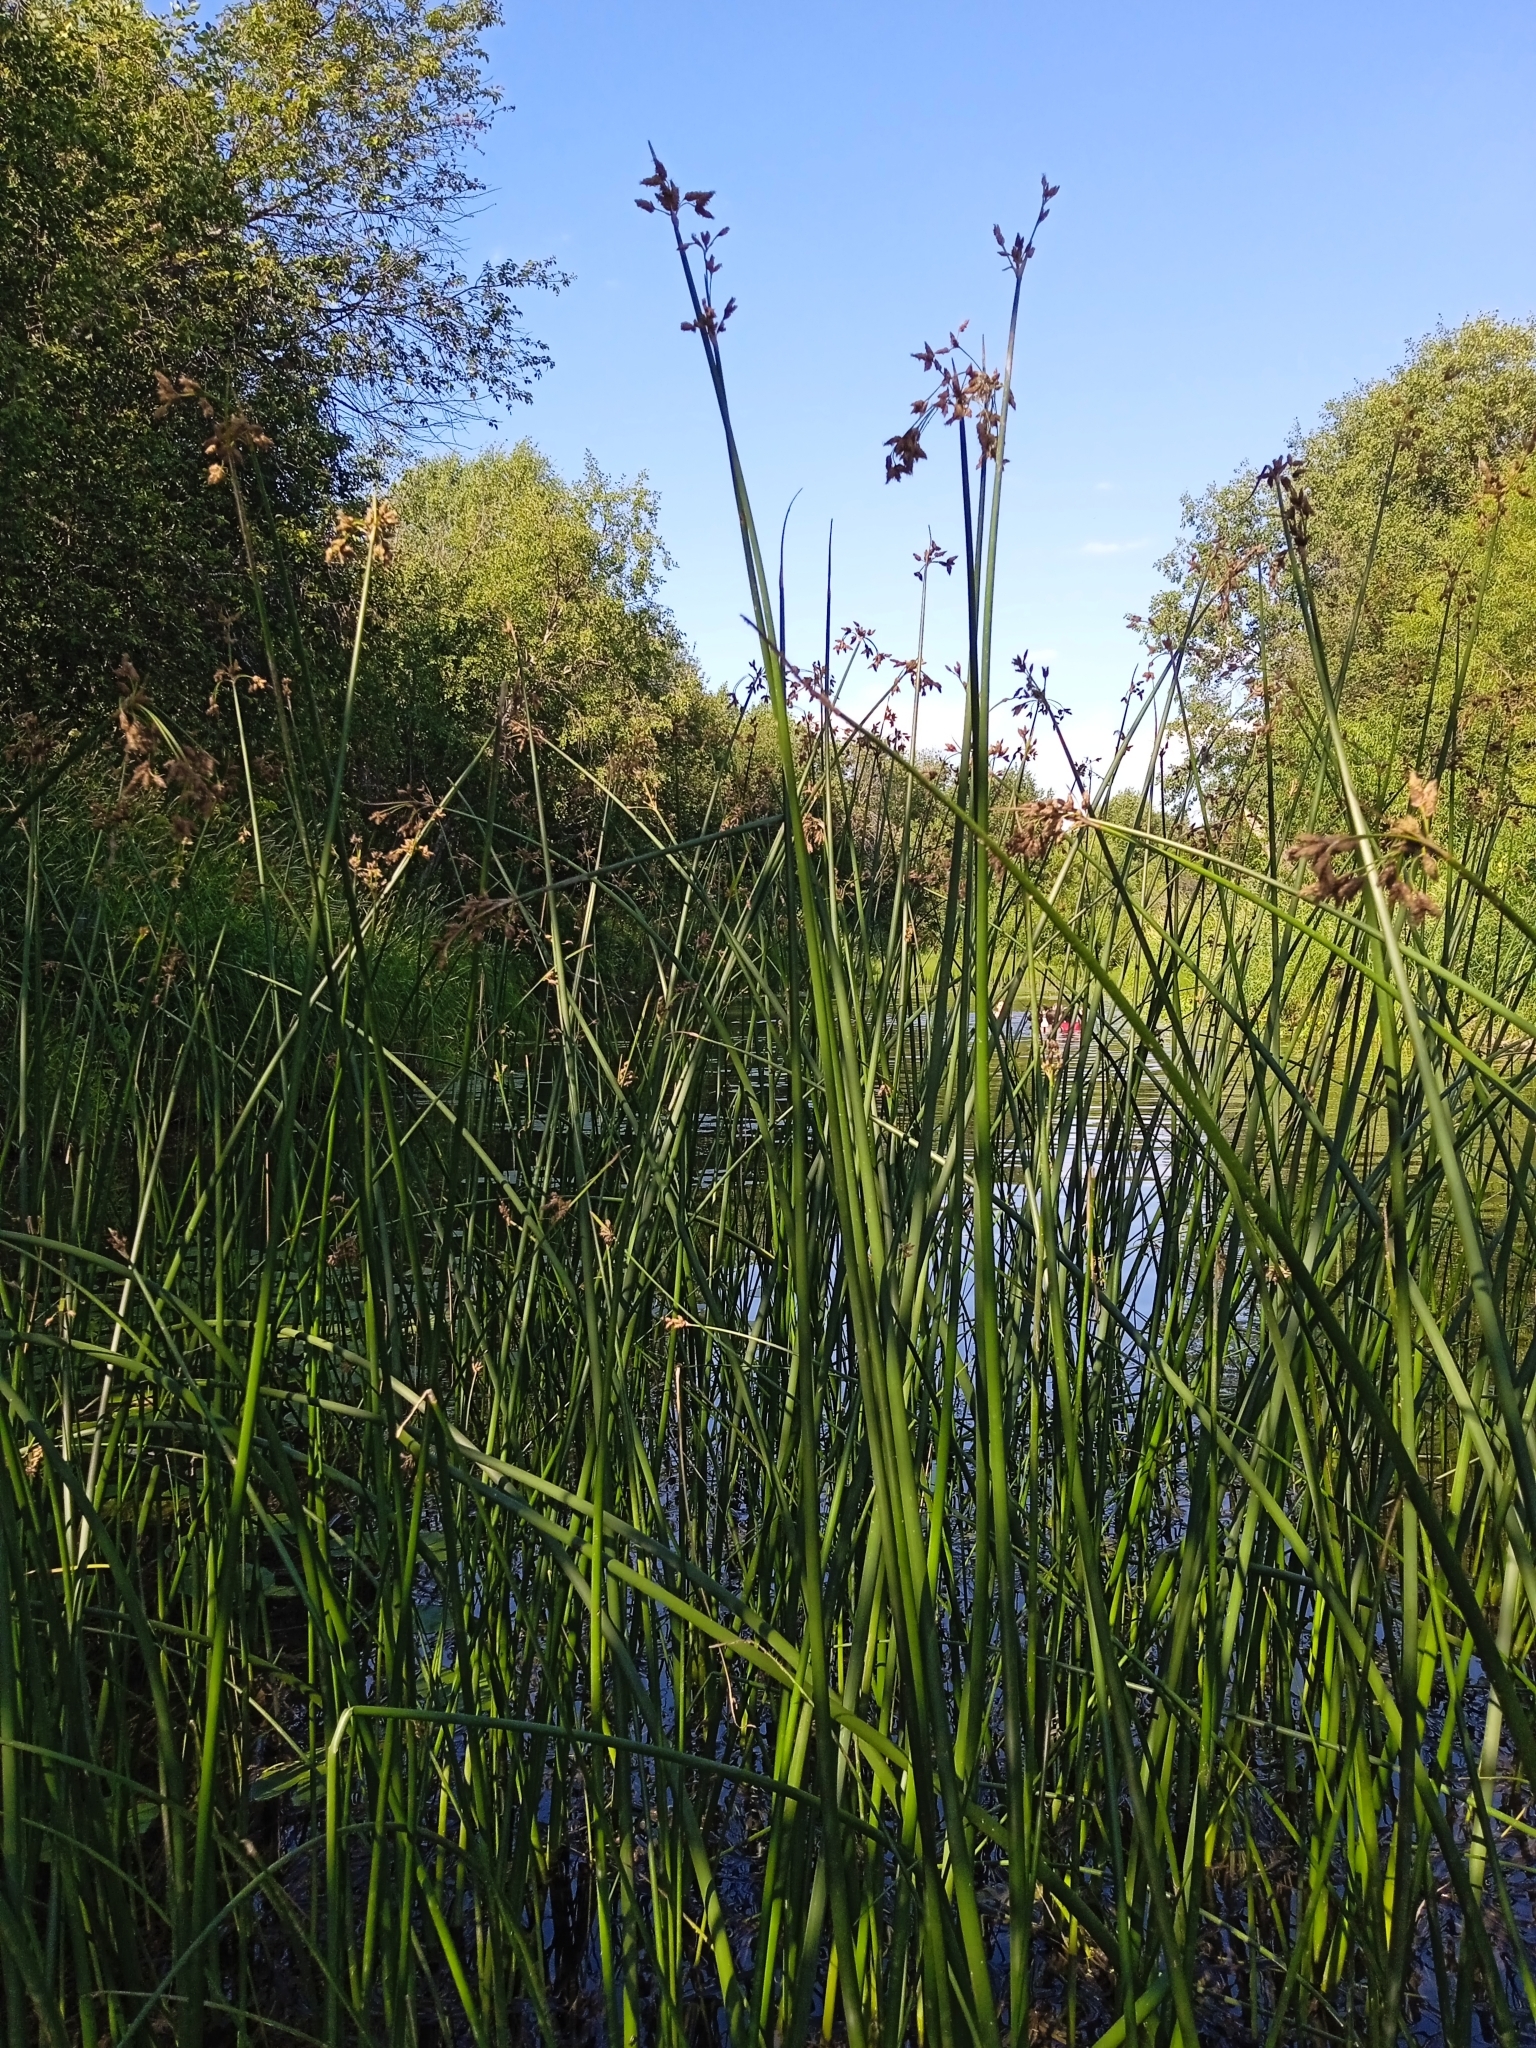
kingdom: Plantae
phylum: Tracheophyta
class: Liliopsida
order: Poales
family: Cyperaceae
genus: Schoenoplectus
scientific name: Schoenoplectus lacustris
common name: Common club-rush
